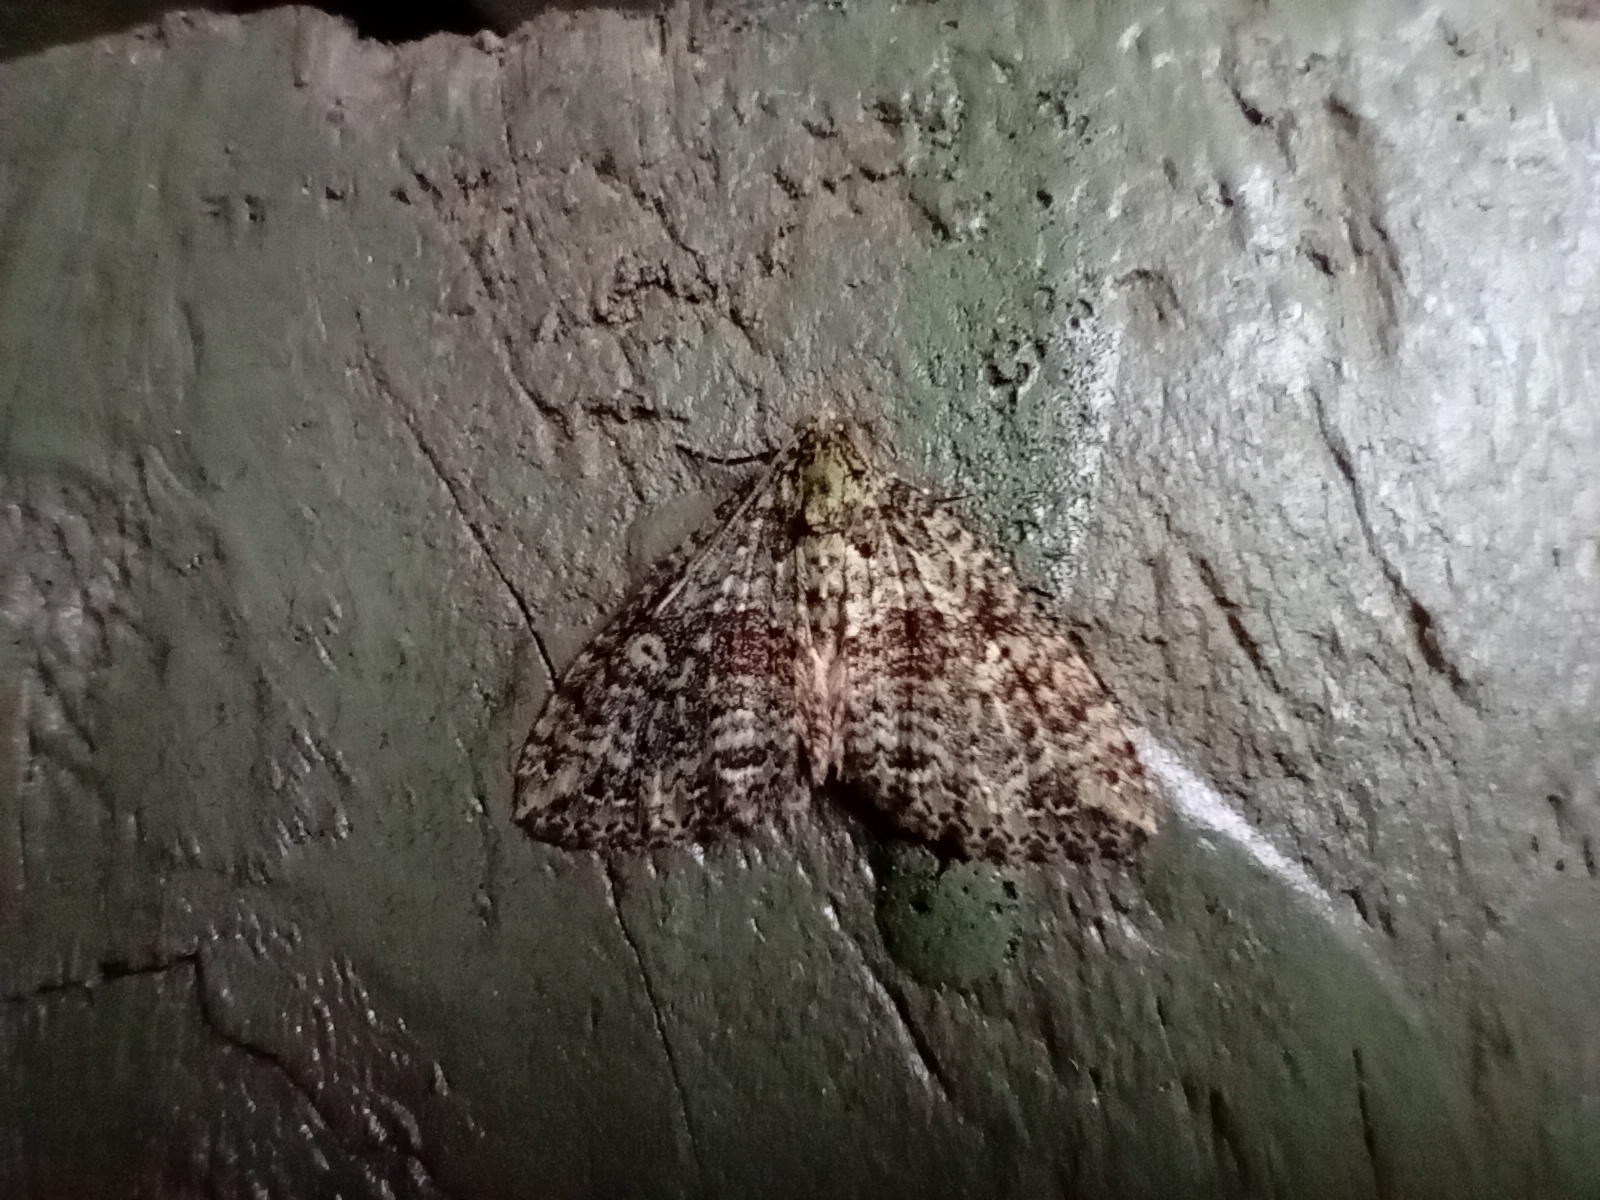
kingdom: Animalia
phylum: Arthropoda
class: Insecta
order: Lepidoptera
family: Geometridae
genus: Austrocidaria
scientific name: Austrocidaria similata
